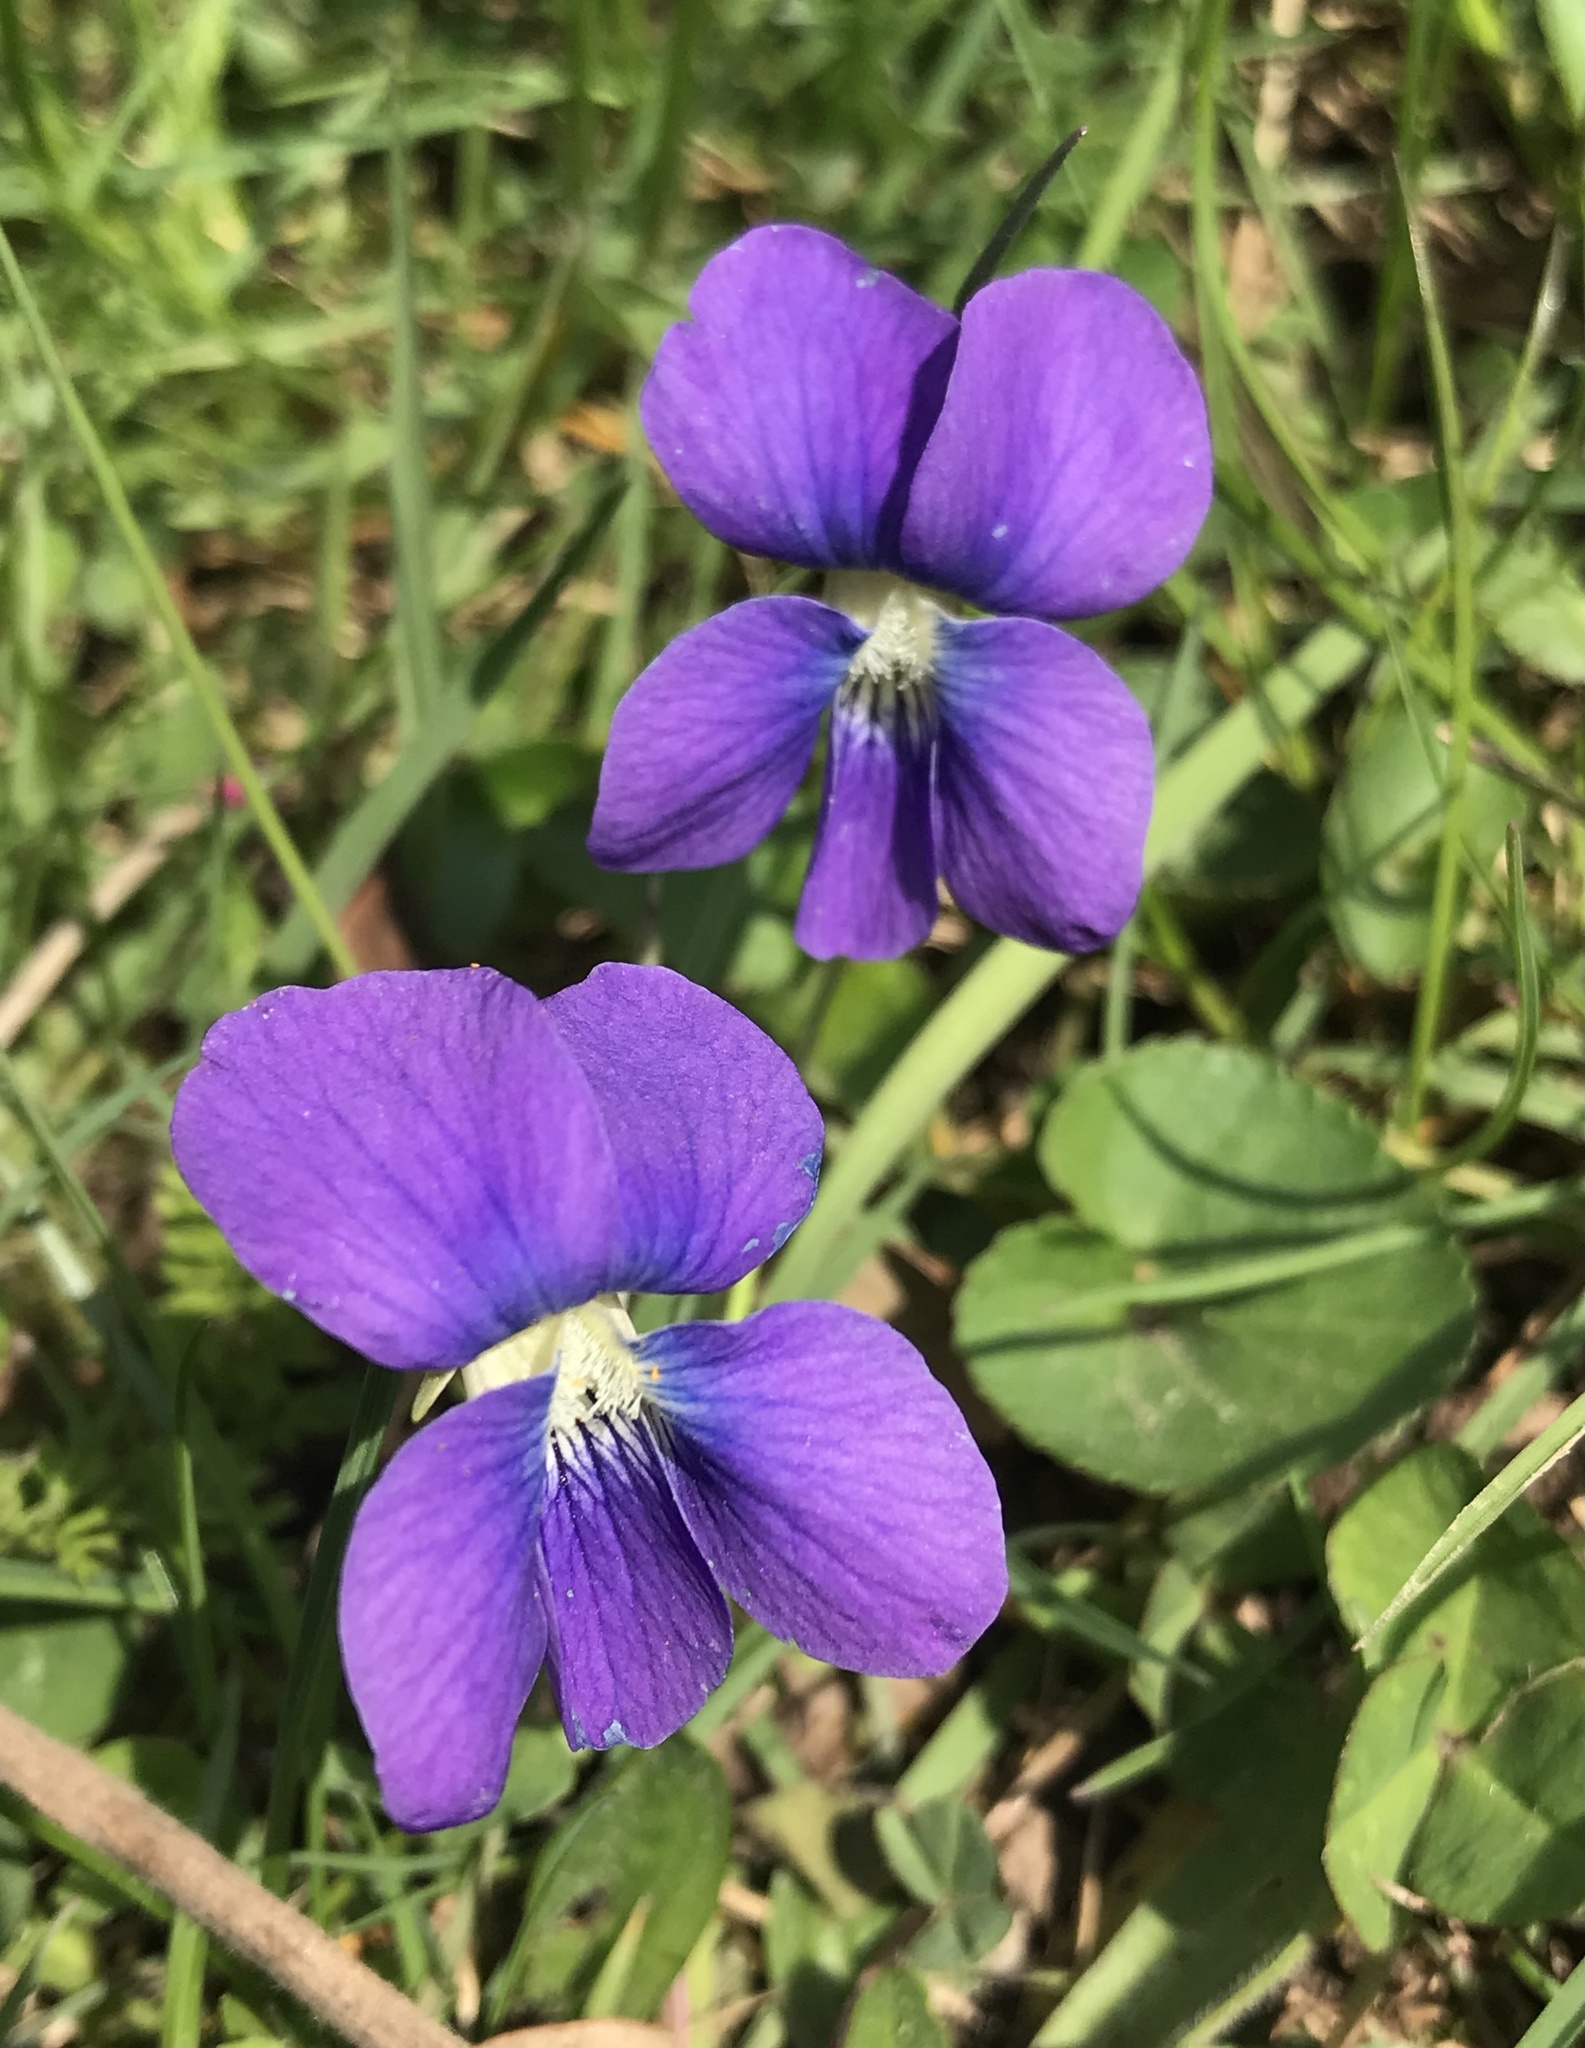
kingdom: Plantae
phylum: Tracheophyta
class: Magnoliopsida
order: Malpighiales
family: Violaceae
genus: Viola
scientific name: Viola sororia
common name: Dooryard violet
